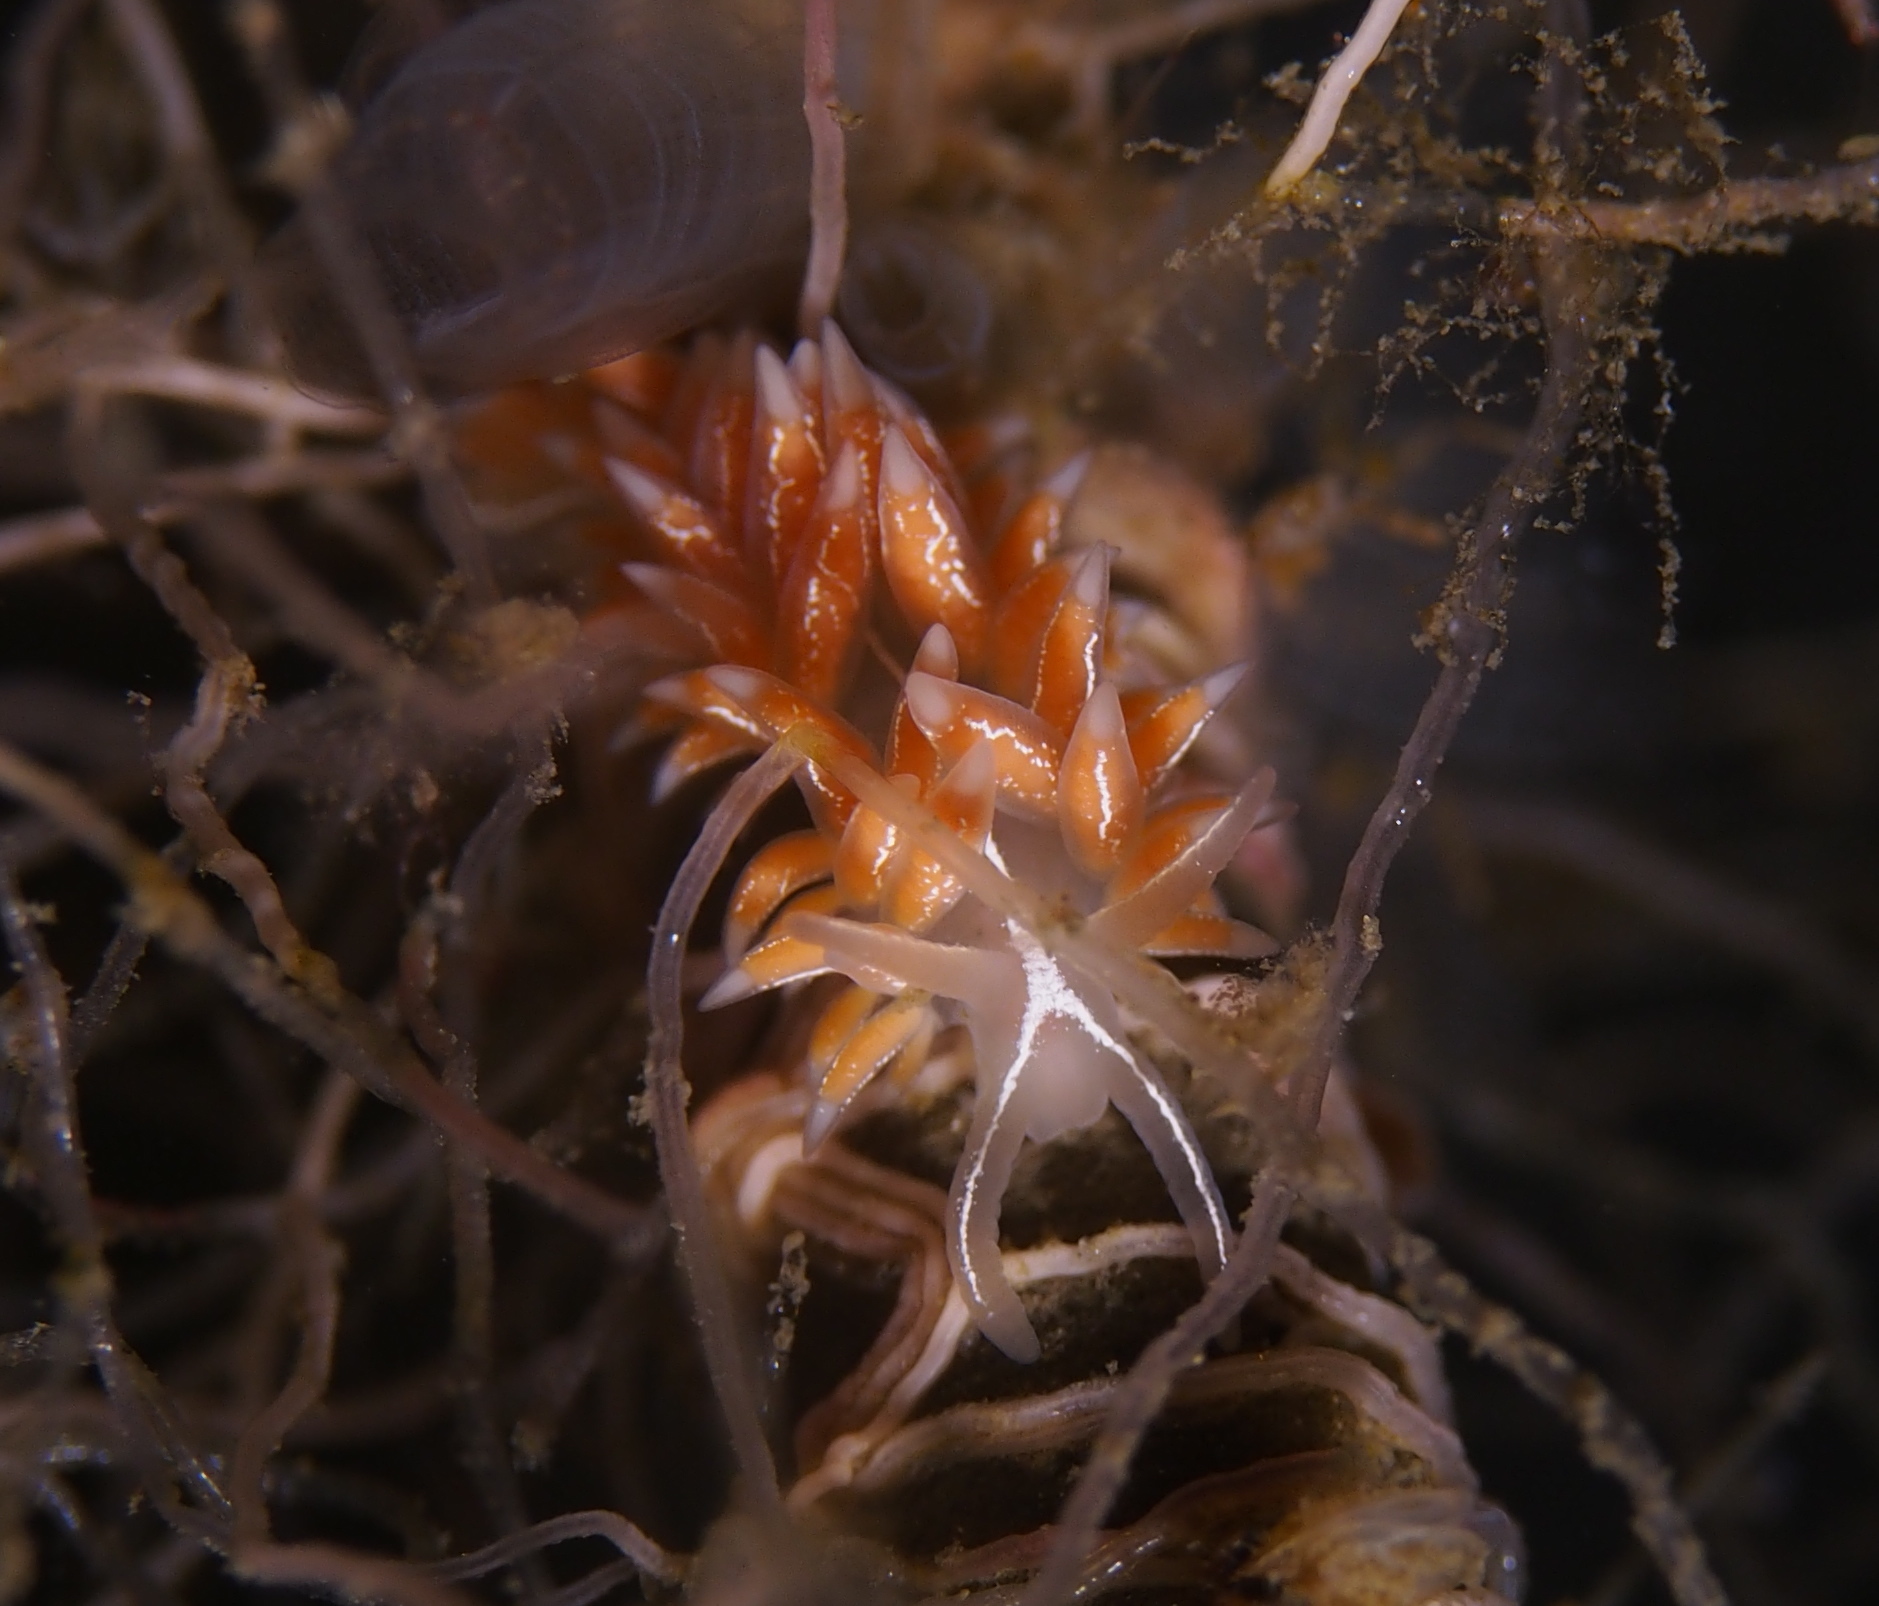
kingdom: Animalia
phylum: Mollusca
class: Gastropoda
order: Nudibranchia
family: Coryphellidae
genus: Coryphella
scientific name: Coryphella chriskaugei
